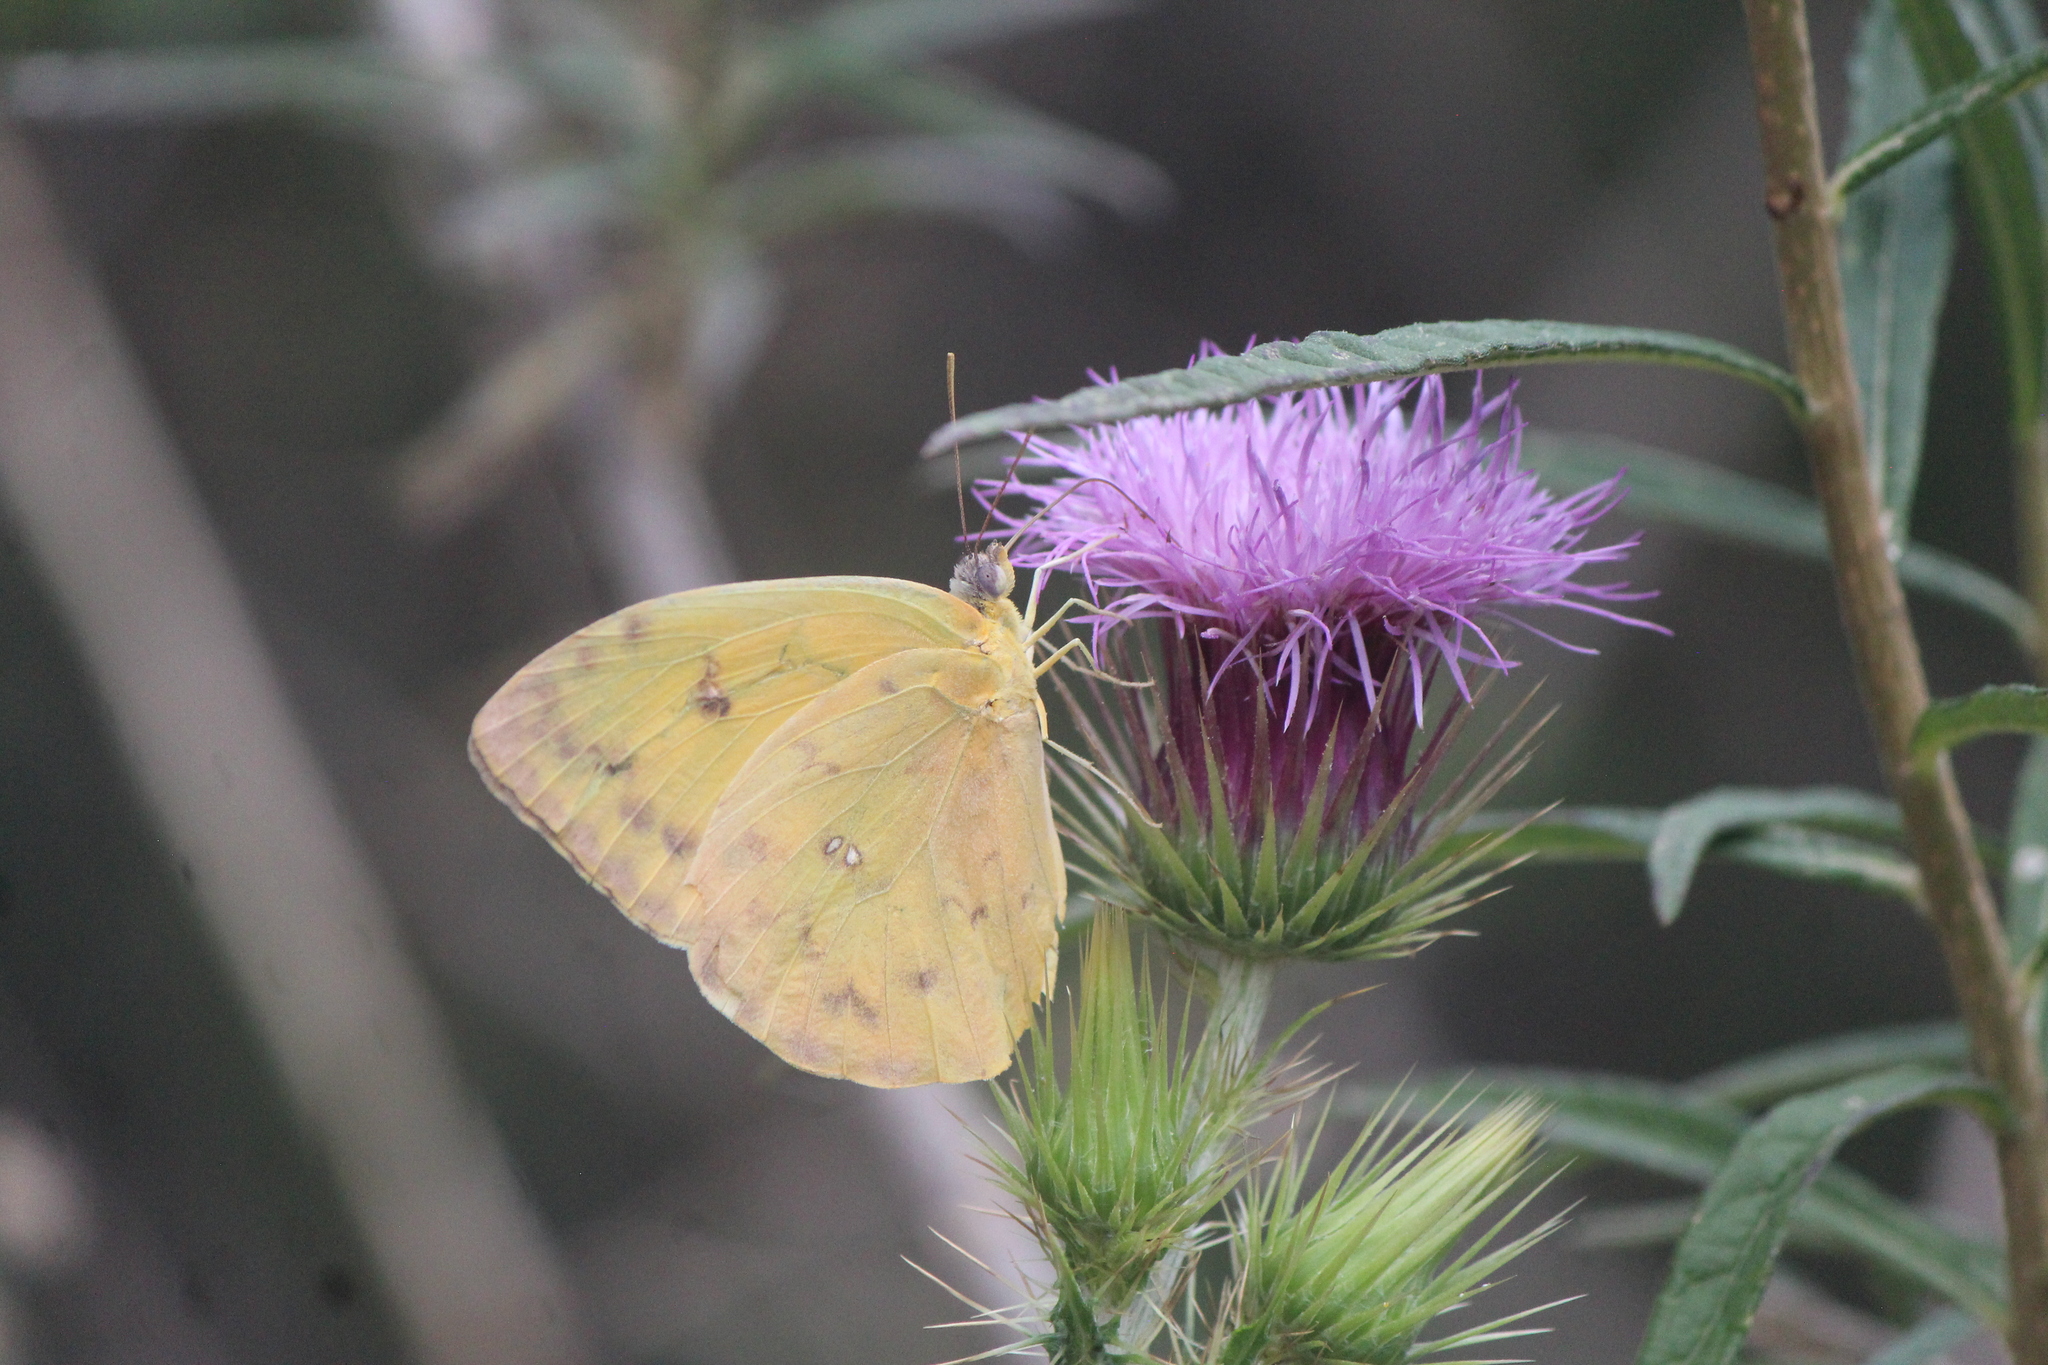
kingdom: Animalia
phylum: Arthropoda
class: Insecta
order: Lepidoptera
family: Pieridae
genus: Phoebis
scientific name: Phoebis philea
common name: Orange-barred giant sulphur
